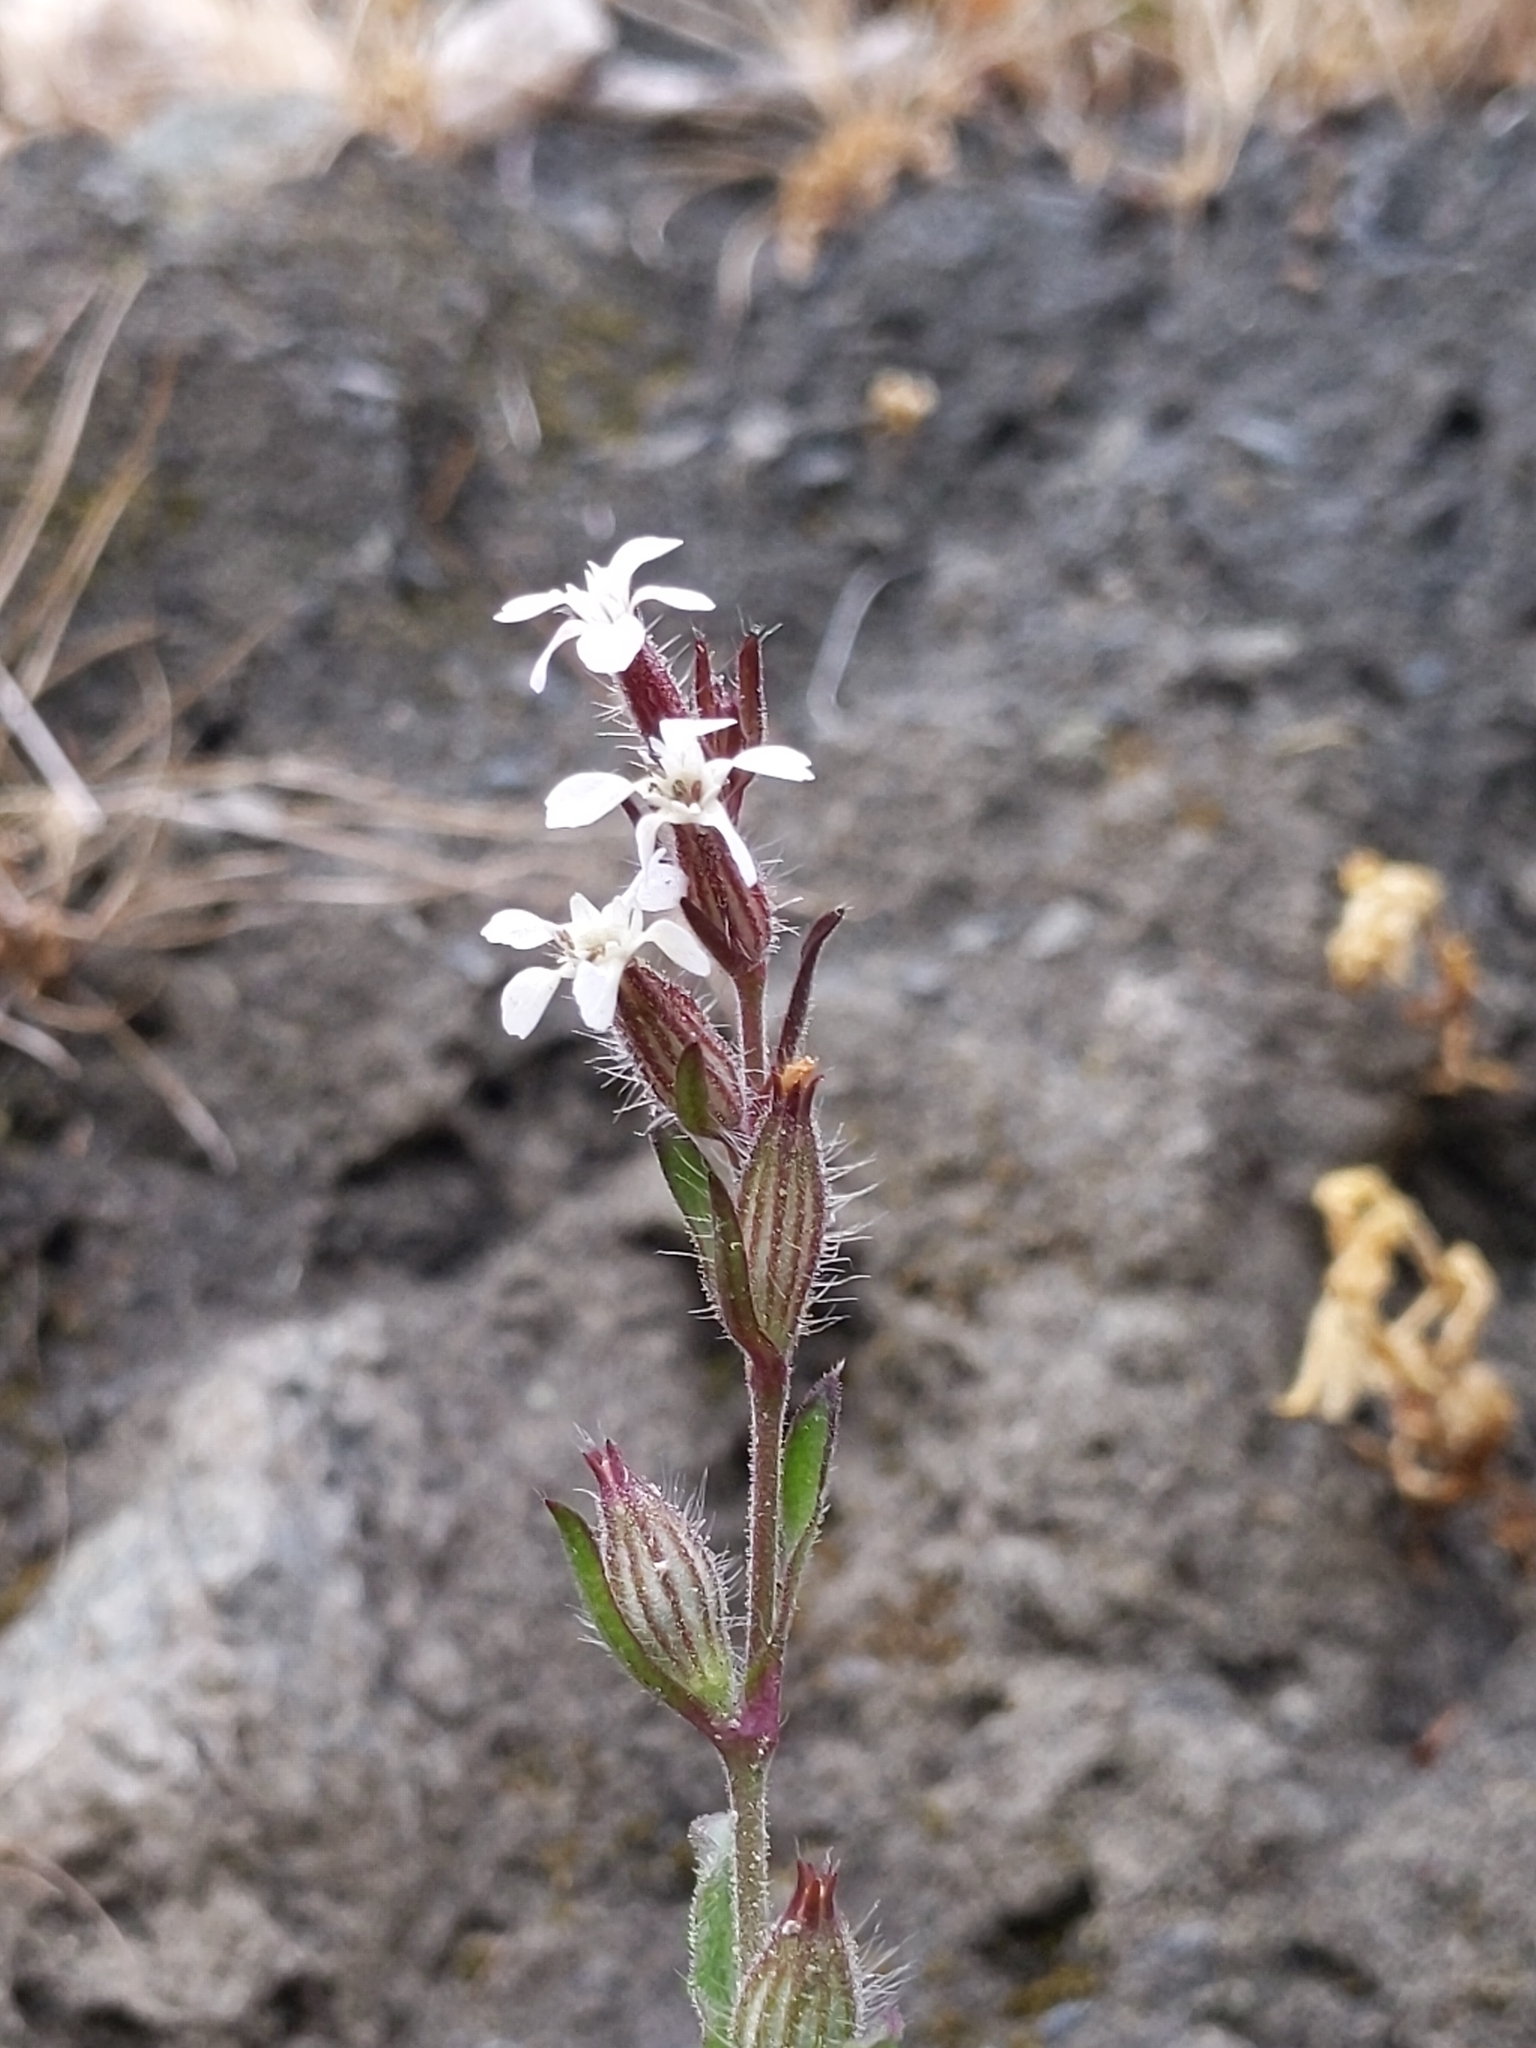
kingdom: Plantae
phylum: Tracheophyta
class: Magnoliopsida
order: Caryophyllales
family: Caryophyllaceae
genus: Silene
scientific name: Silene gallica
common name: Small-flowered catchfly
